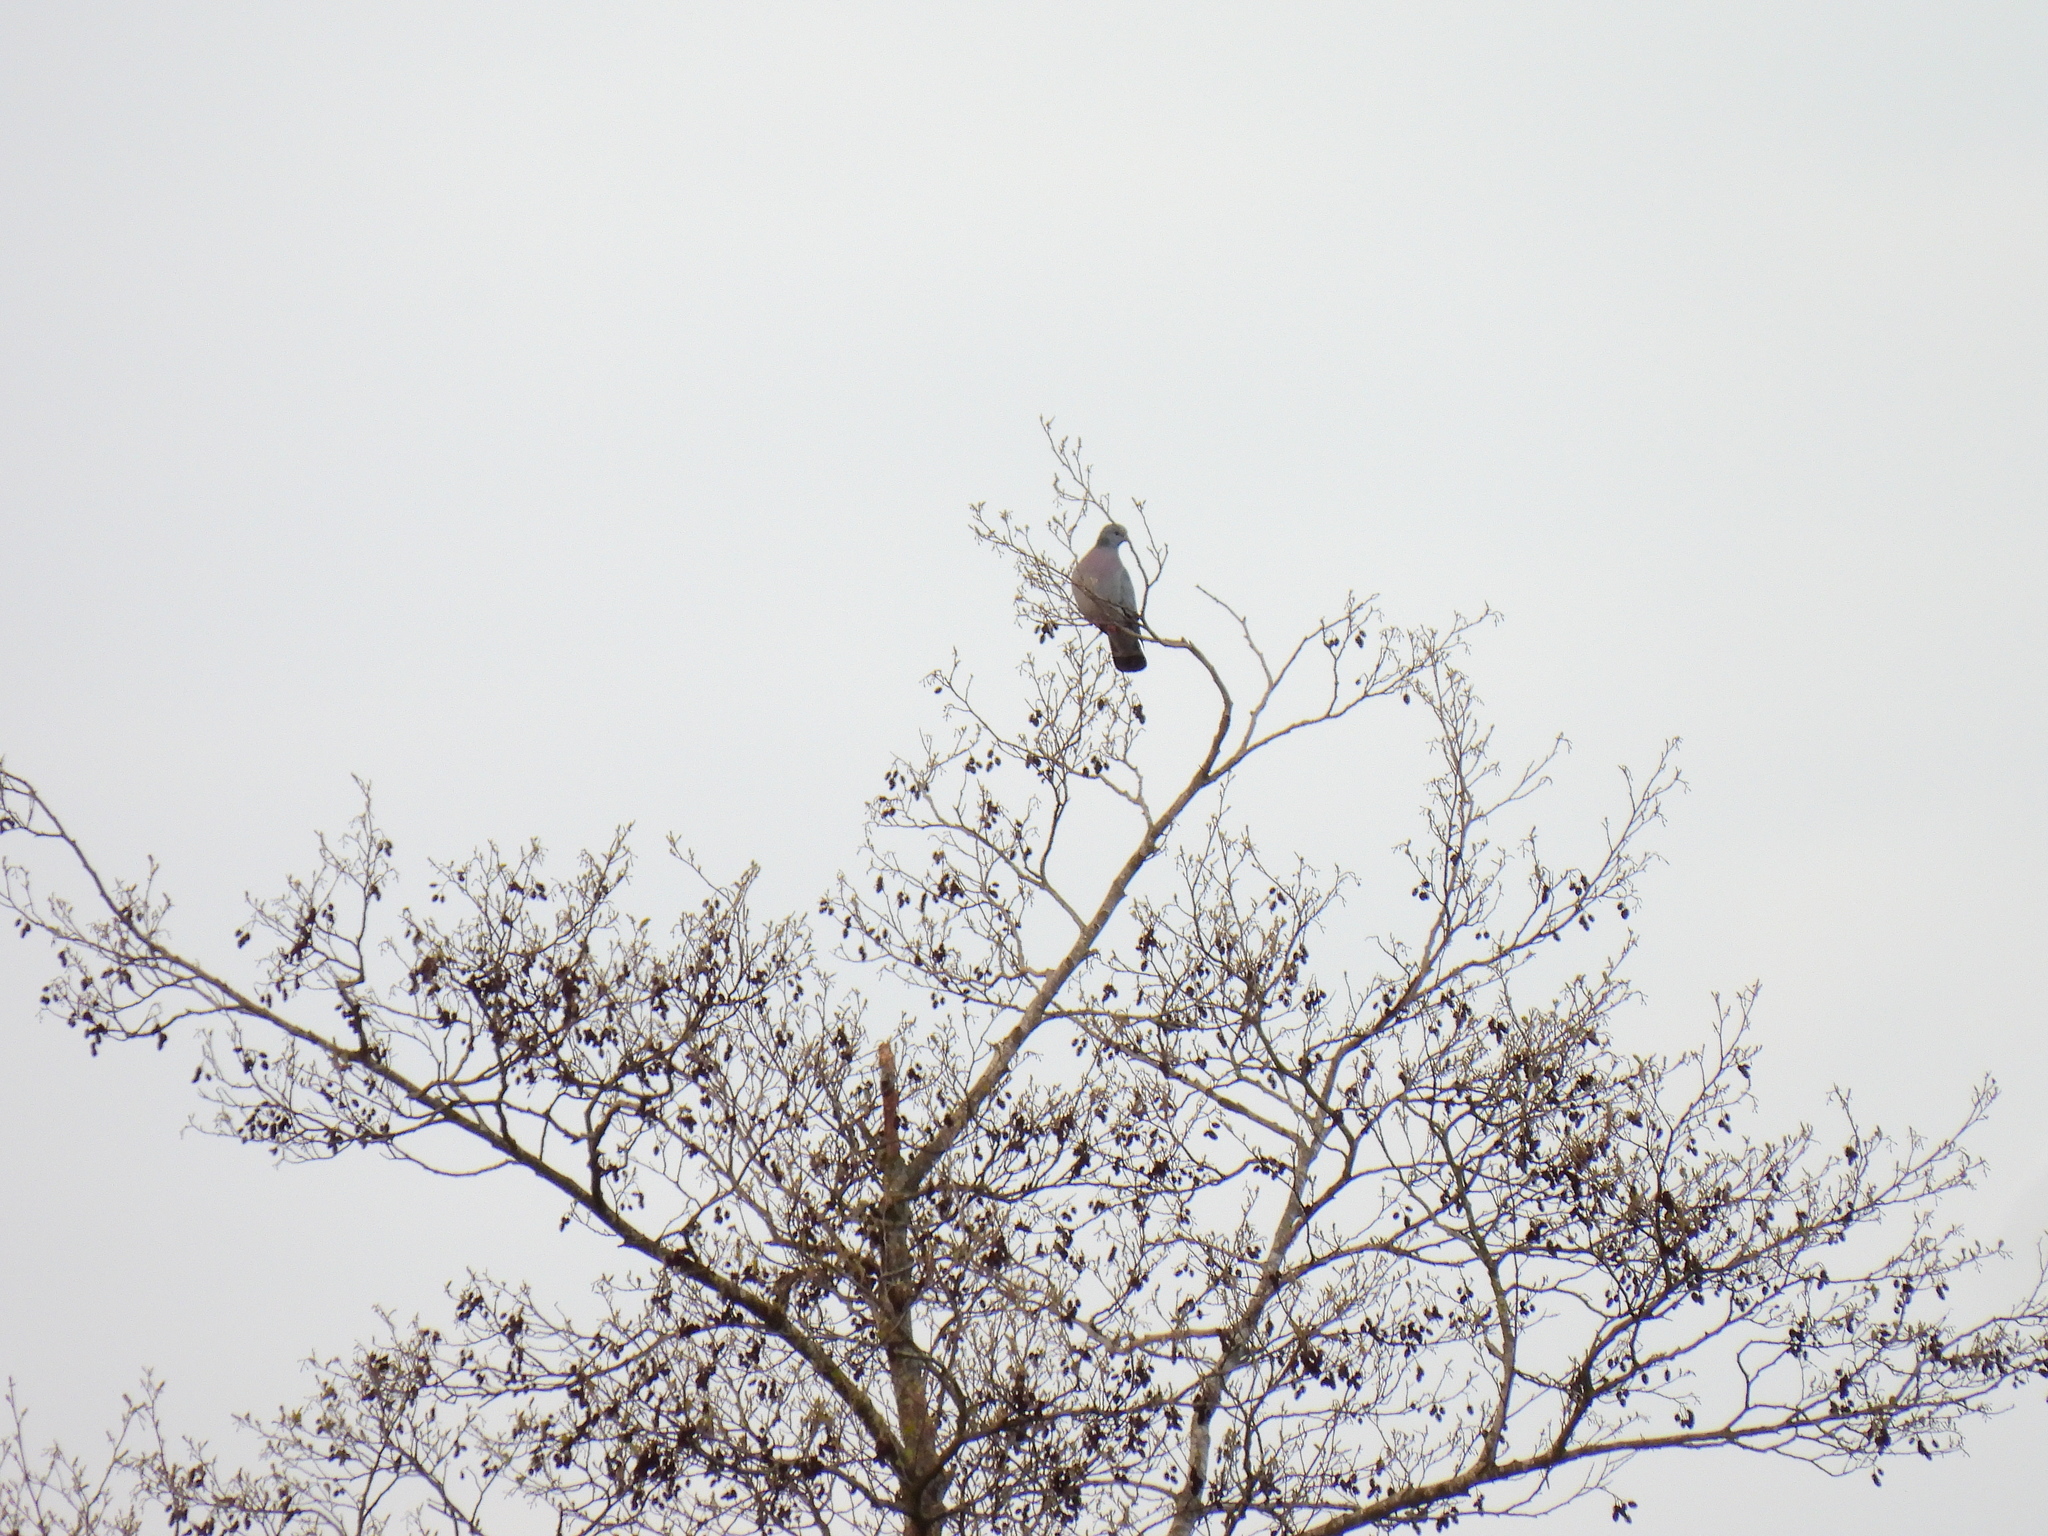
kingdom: Animalia
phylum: Chordata
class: Aves
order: Columbiformes
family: Columbidae
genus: Columba
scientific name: Columba oenas
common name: Stock dove
